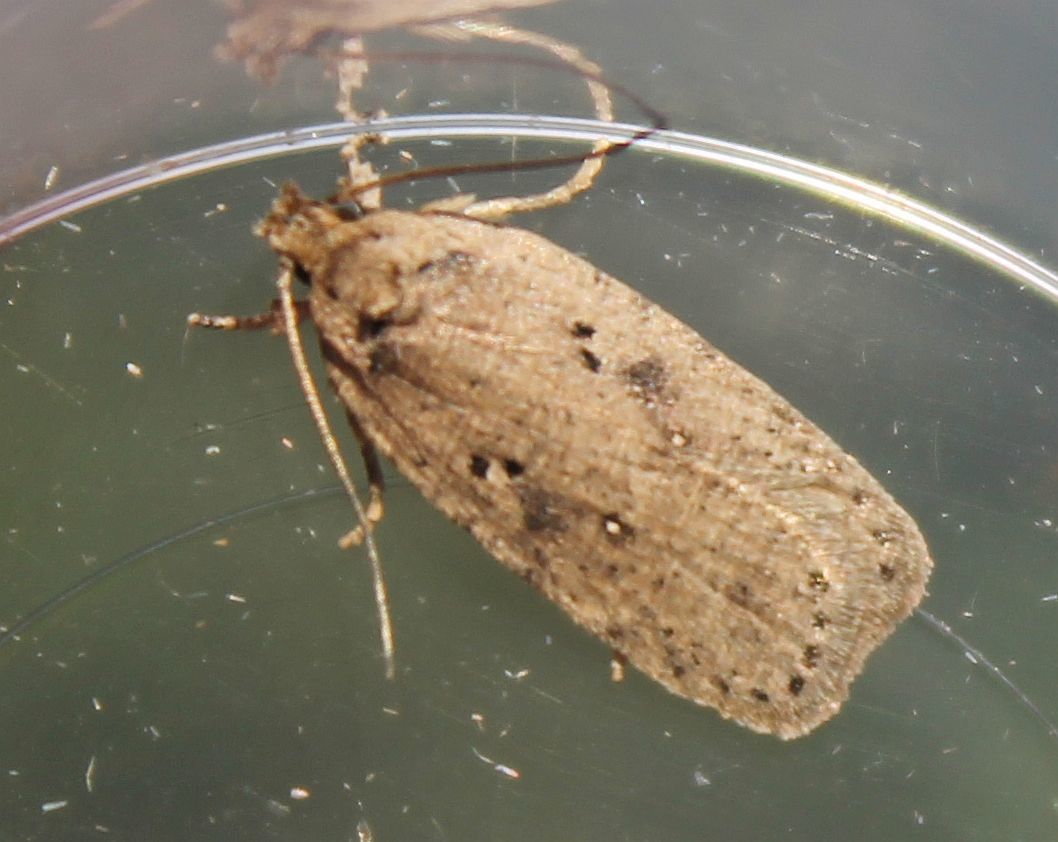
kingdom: Animalia
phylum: Arthropoda
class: Insecta
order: Lepidoptera
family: Depressariidae
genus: Agonopterix
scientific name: Agonopterix yeatiana
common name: Coastal flat-body
